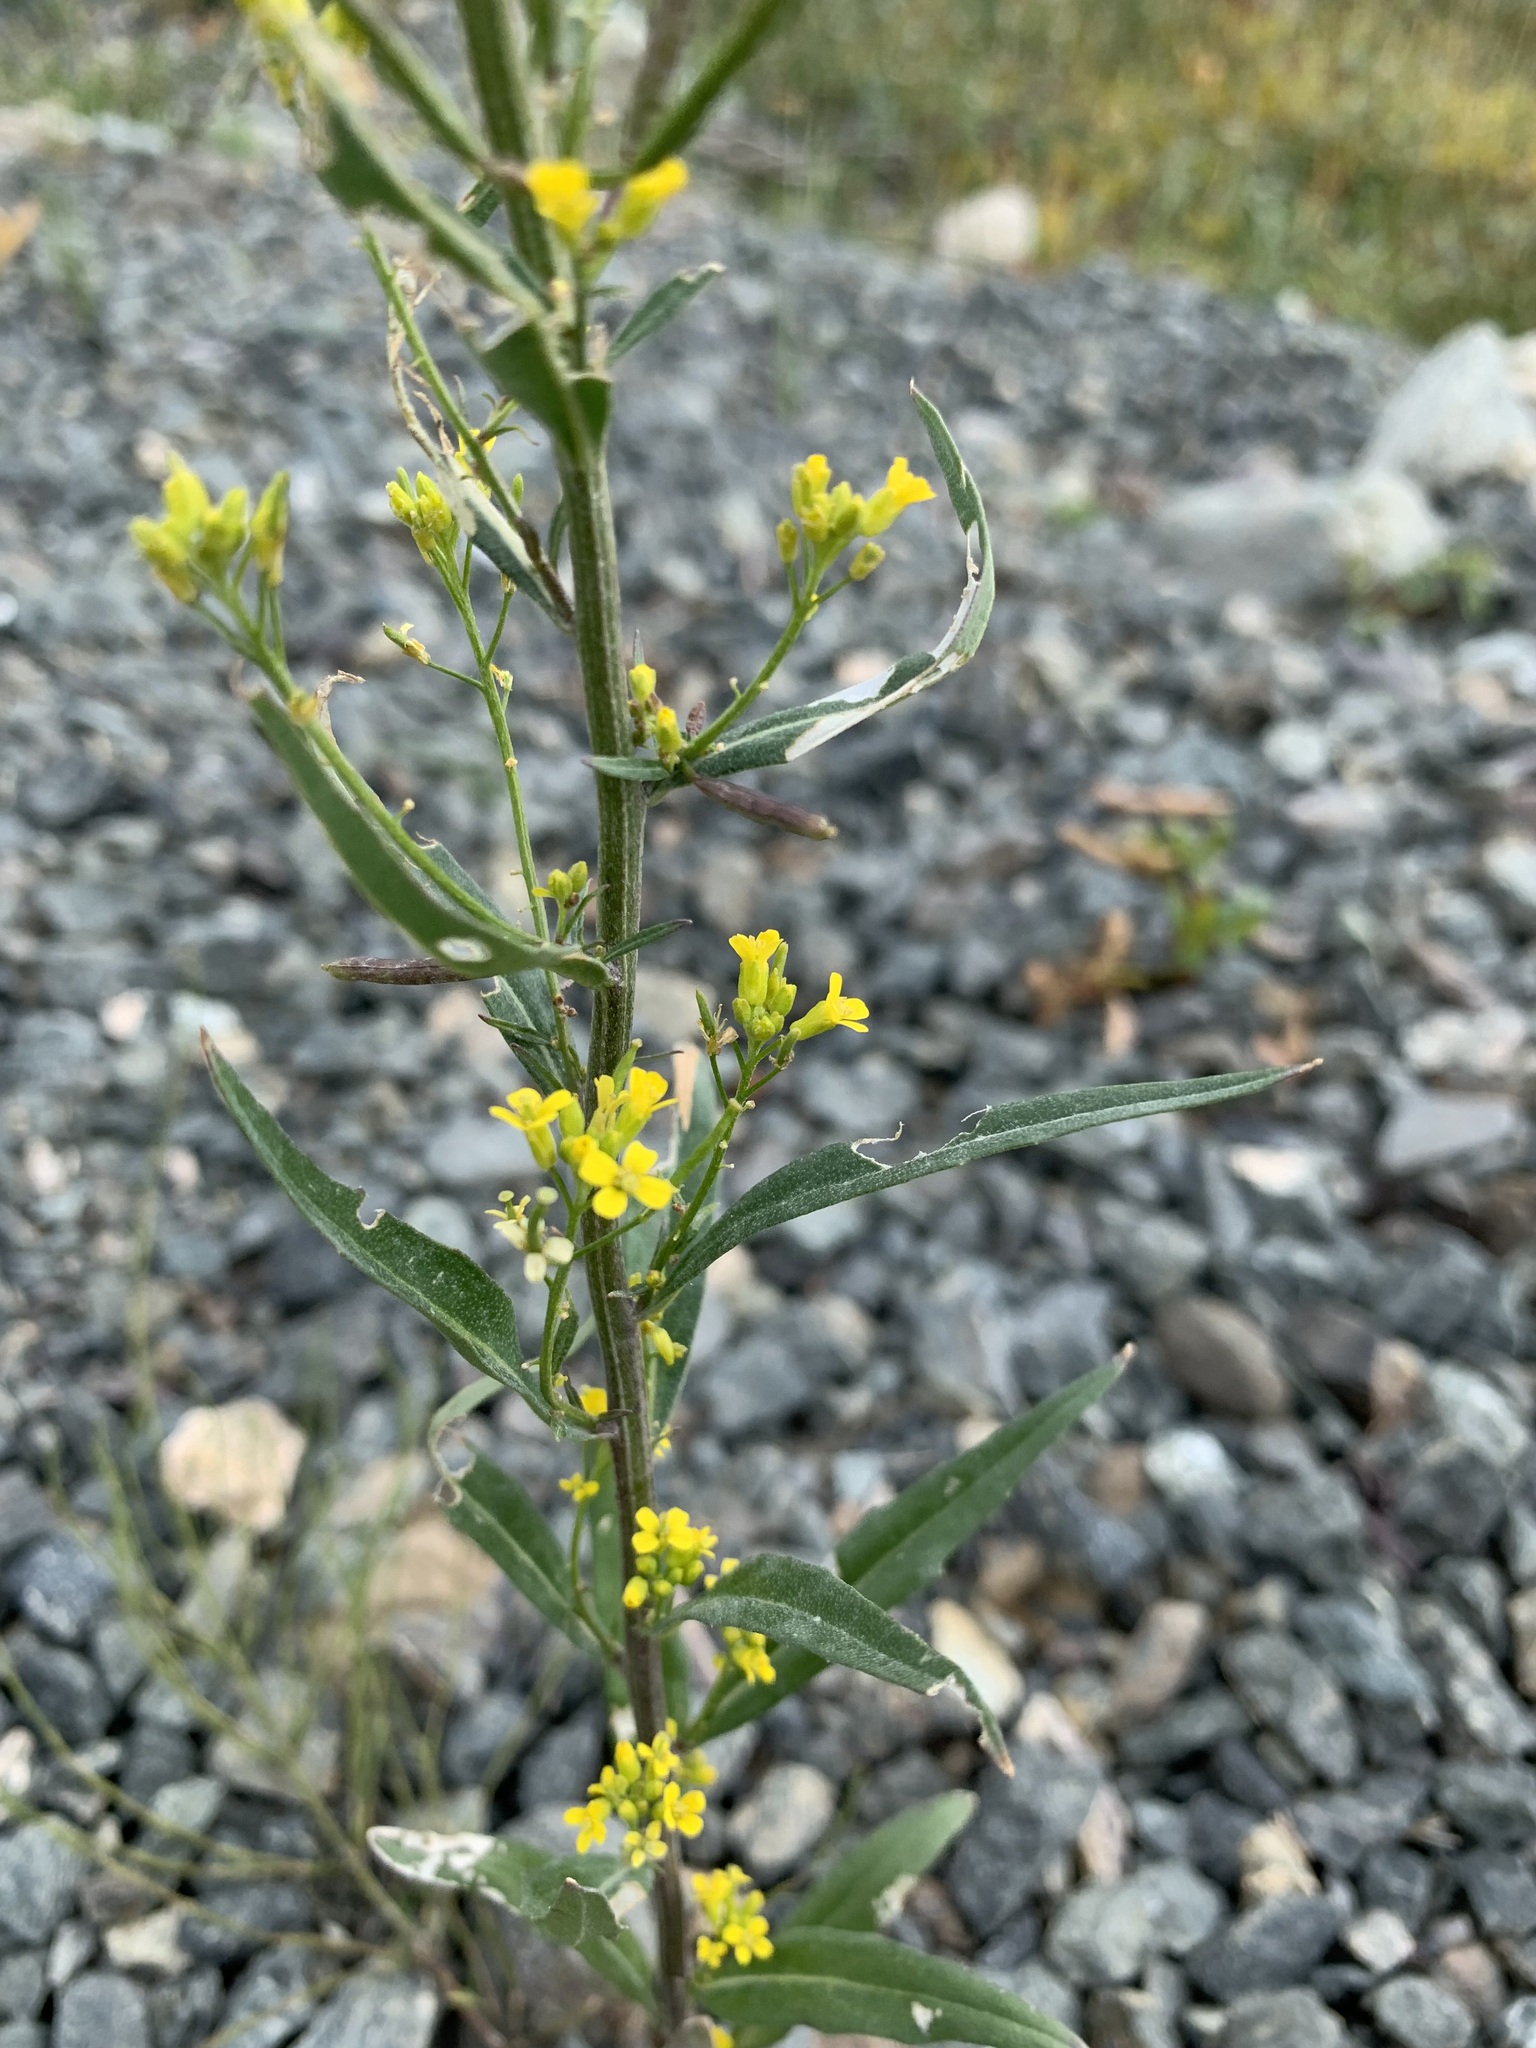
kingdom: Plantae
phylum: Tracheophyta
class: Magnoliopsida
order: Brassicales
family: Brassicaceae
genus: Erysimum
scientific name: Erysimum cheiranthoides
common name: Treacle mustard
